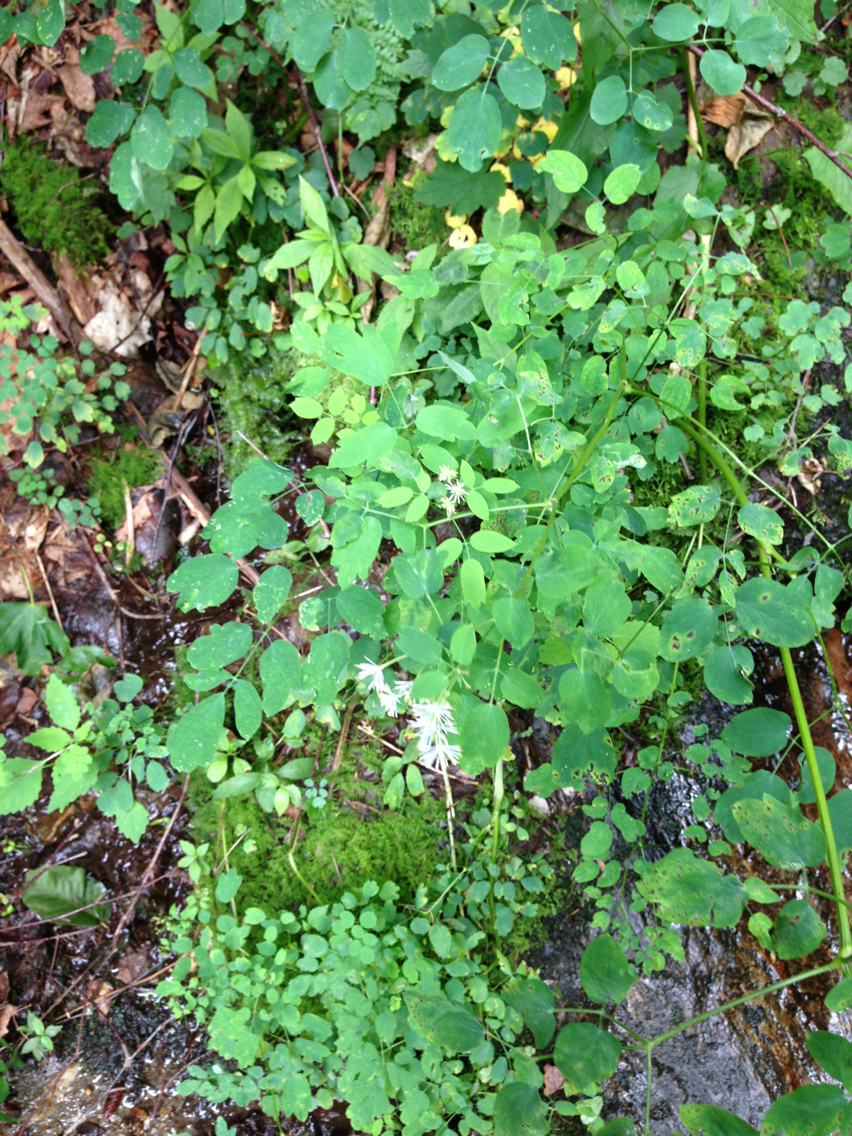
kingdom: Plantae
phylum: Tracheophyta
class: Magnoliopsida
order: Ranunculales
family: Ranunculaceae
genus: Thalictrum
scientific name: Thalictrum pubescens
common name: King-of-the-meadow
